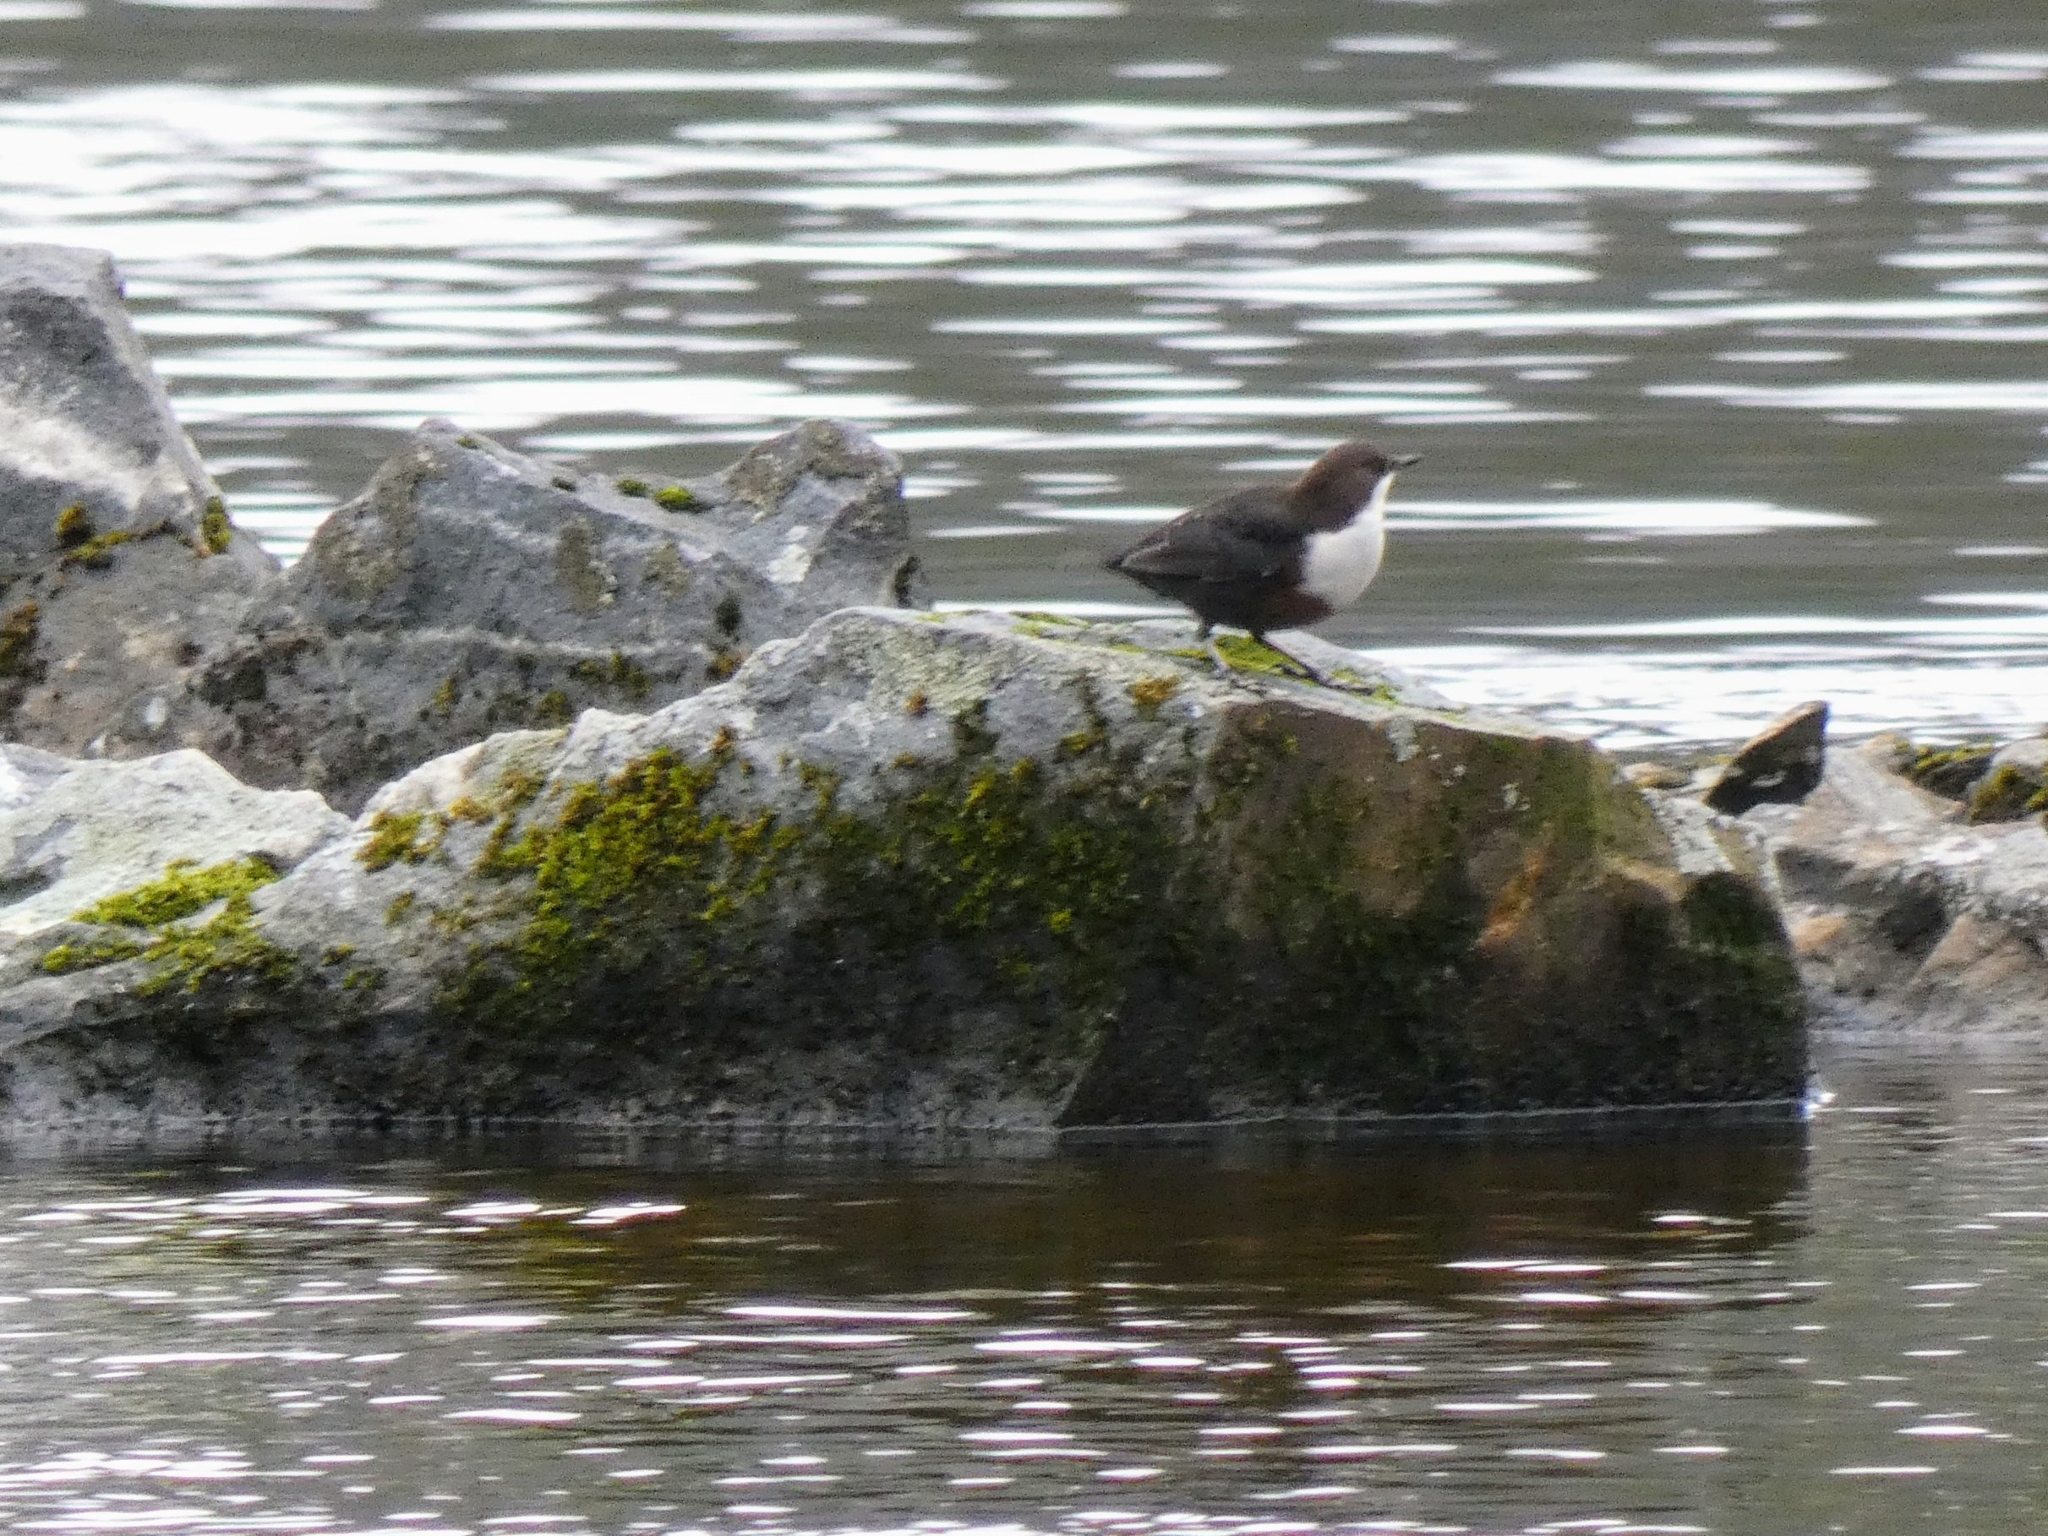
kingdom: Animalia
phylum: Chordata
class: Aves
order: Passeriformes
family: Cinclidae
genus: Cinclus
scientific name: Cinclus cinclus
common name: White-throated dipper
